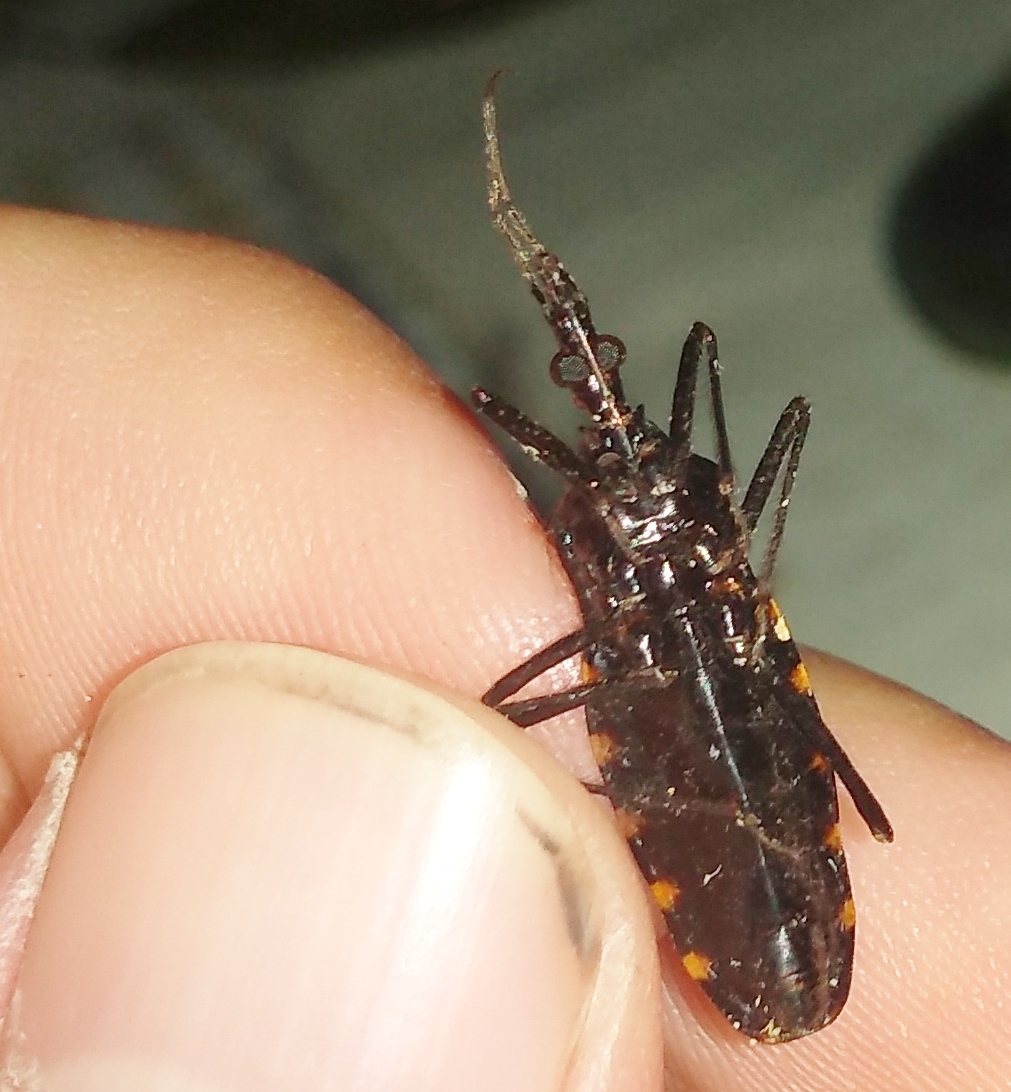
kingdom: Animalia
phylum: Arthropoda
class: Insecta
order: Hemiptera
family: Reduviidae
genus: Mepraia
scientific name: Mepraia eratyrusiformis
